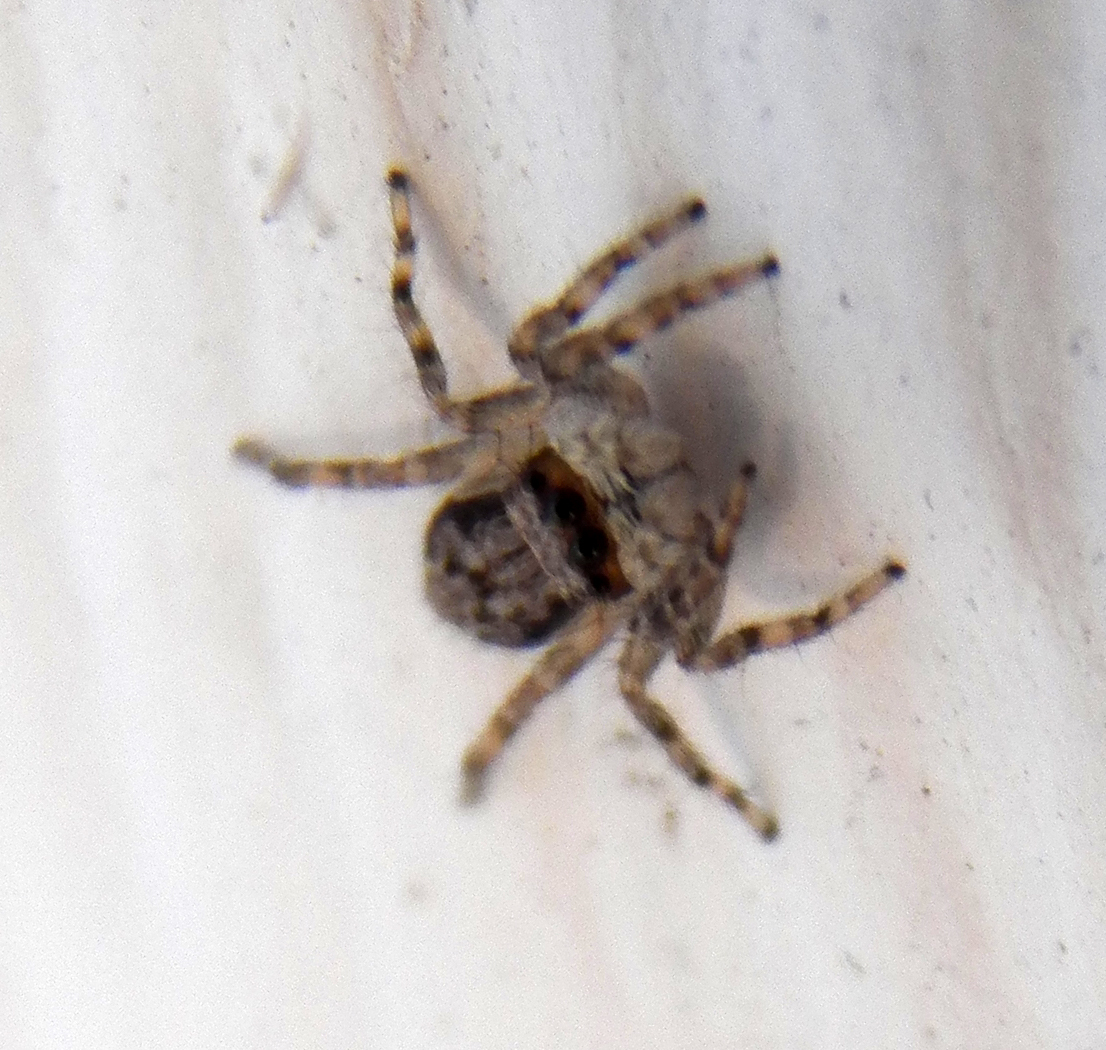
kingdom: Animalia
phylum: Arthropoda
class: Arachnida
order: Araneae
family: Salticidae
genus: Menemerus
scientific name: Menemerus bivittatus
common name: Gray wall jumper
